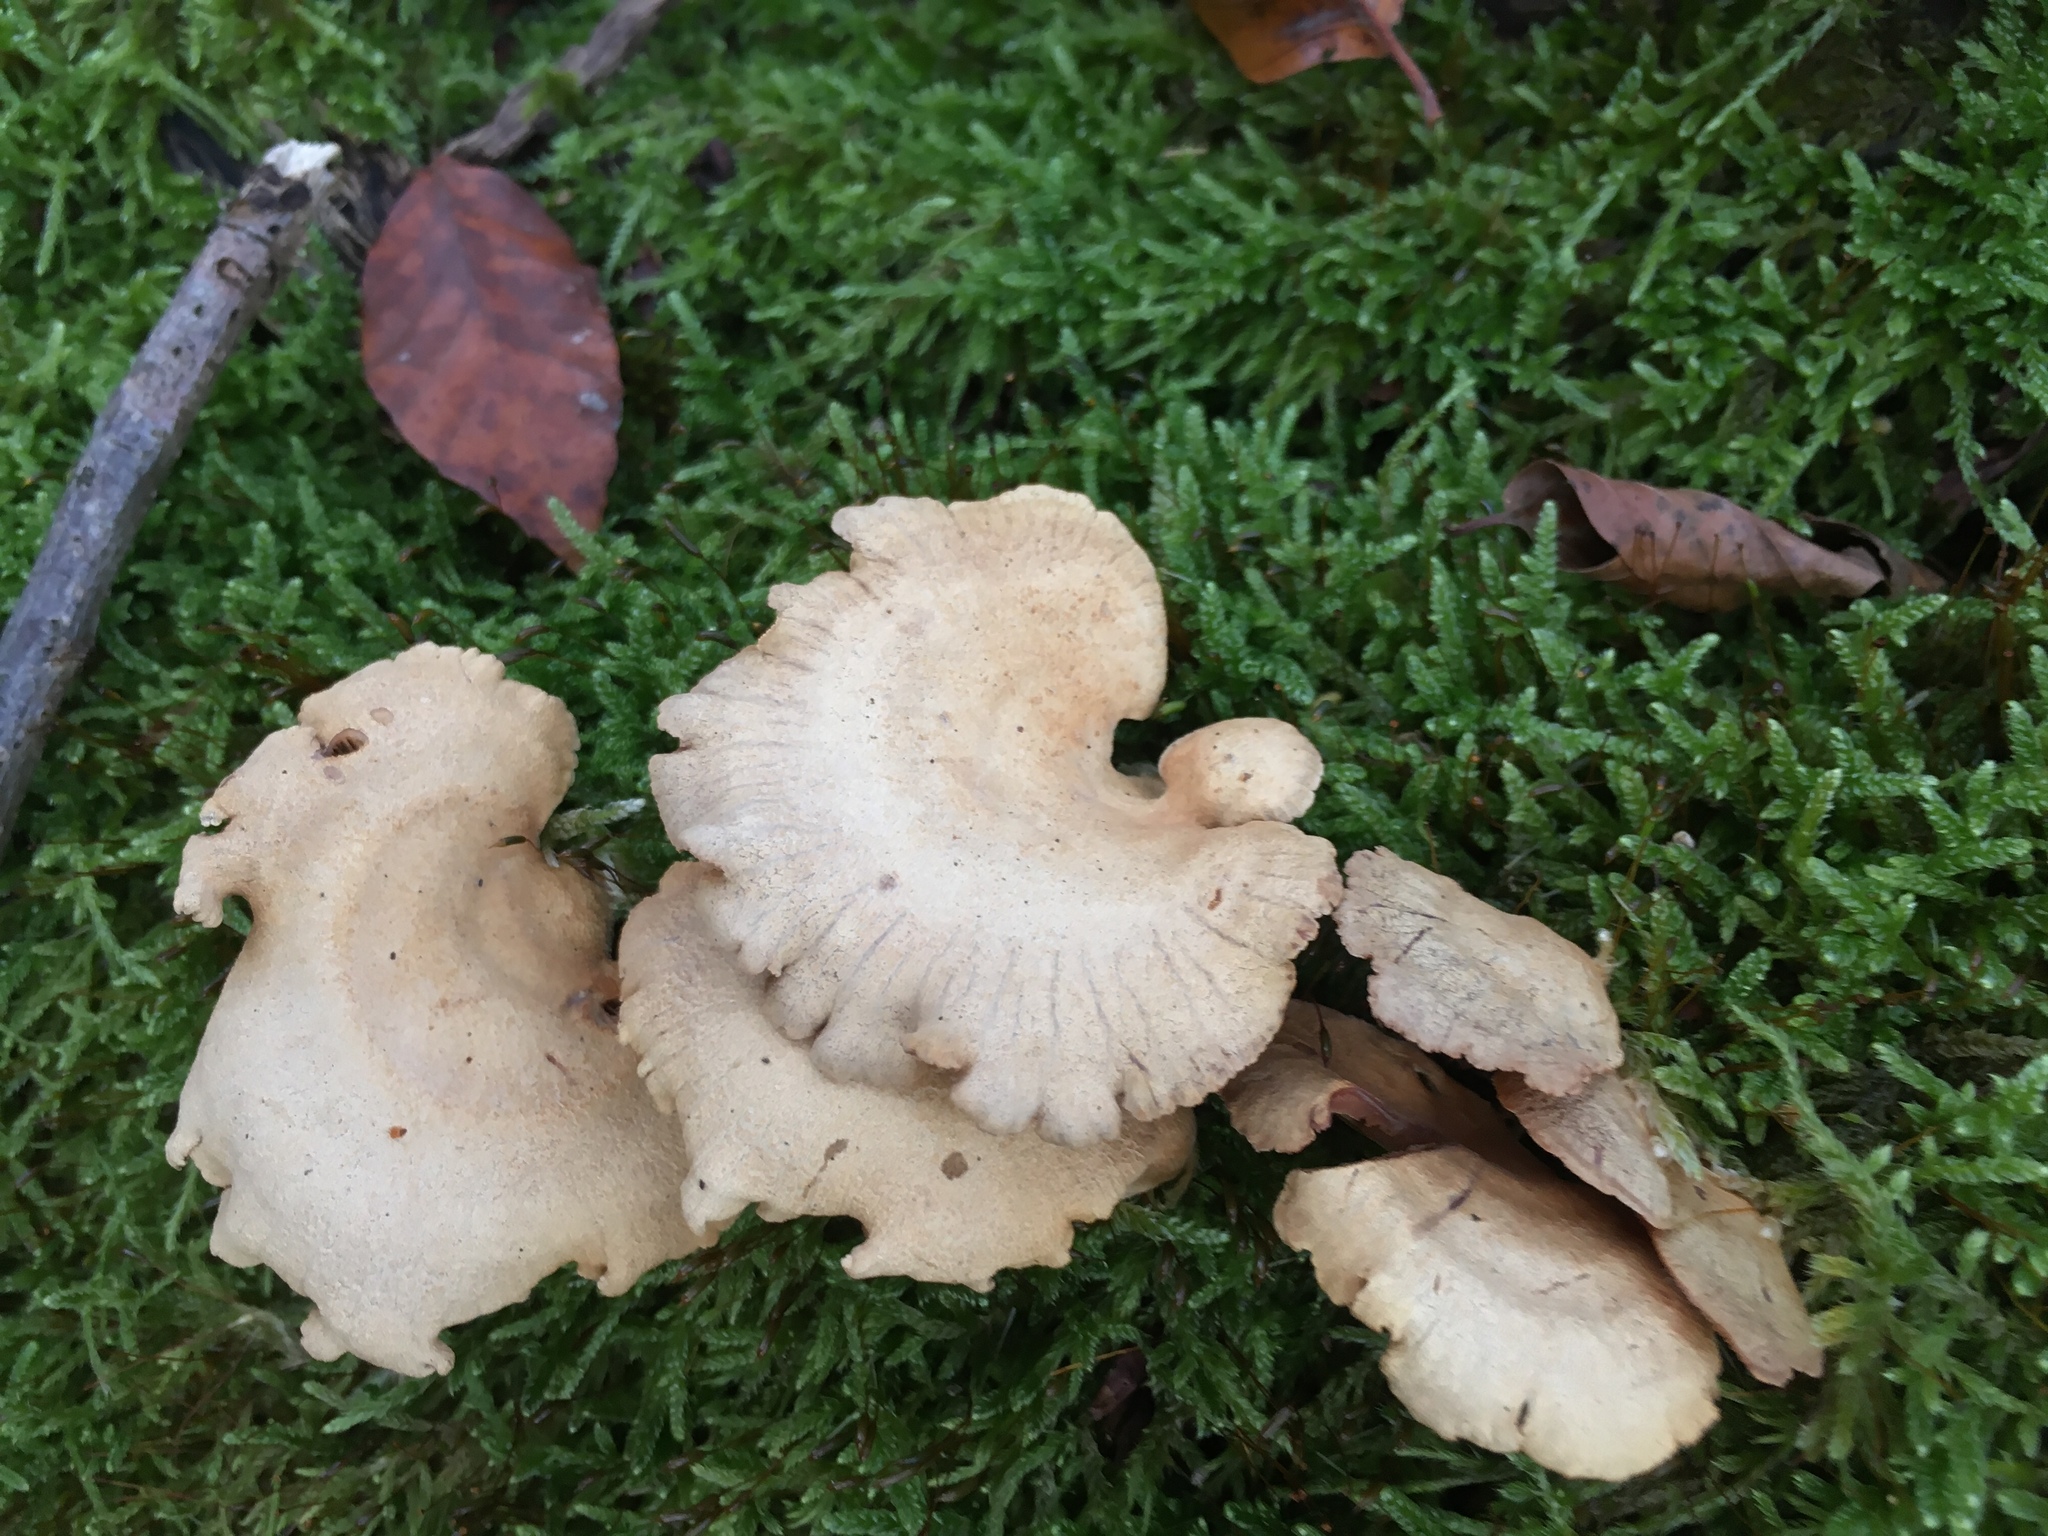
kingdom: Fungi
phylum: Basidiomycota
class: Agaricomycetes
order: Agaricales
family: Mycenaceae
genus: Panellus
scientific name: Panellus stipticus
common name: Bitter oysterling
